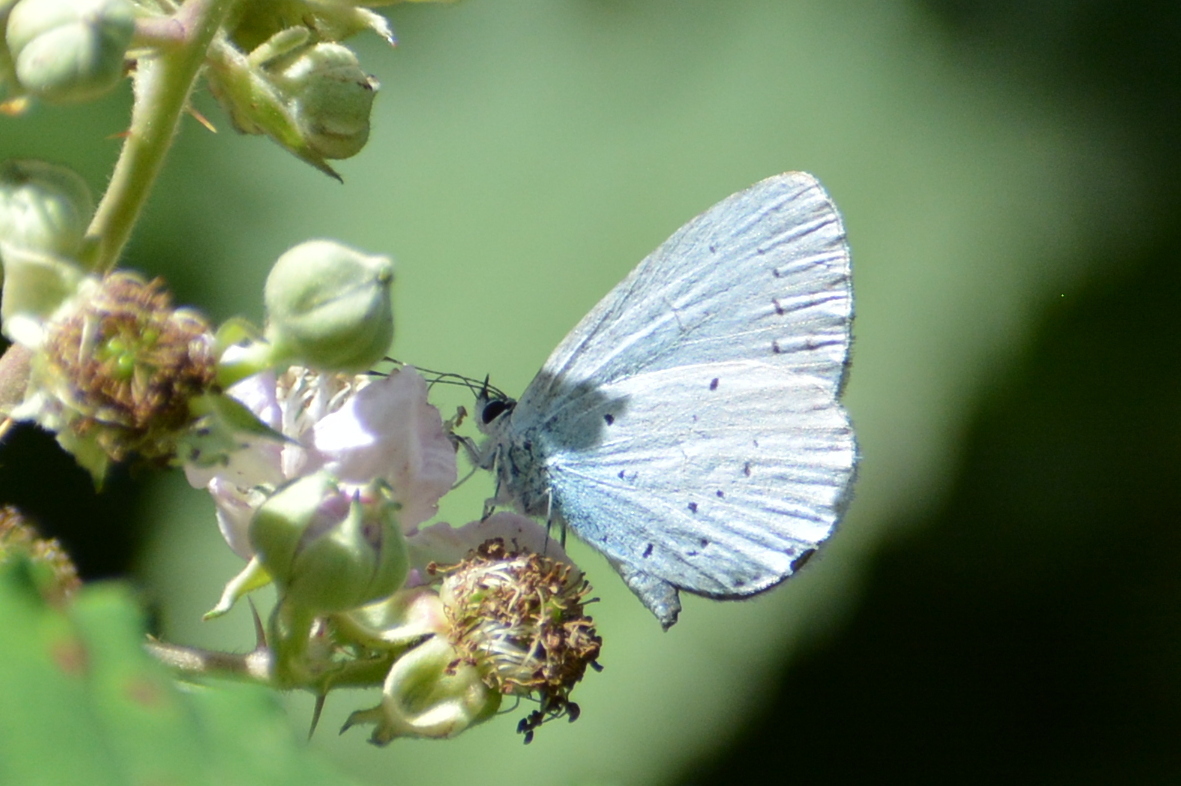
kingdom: Animalia
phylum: Arthropoda
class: Insecta
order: Lepidoptera
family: Lycaenidae
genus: Celastrina
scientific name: Celastrina argiolus
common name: Holly blue
